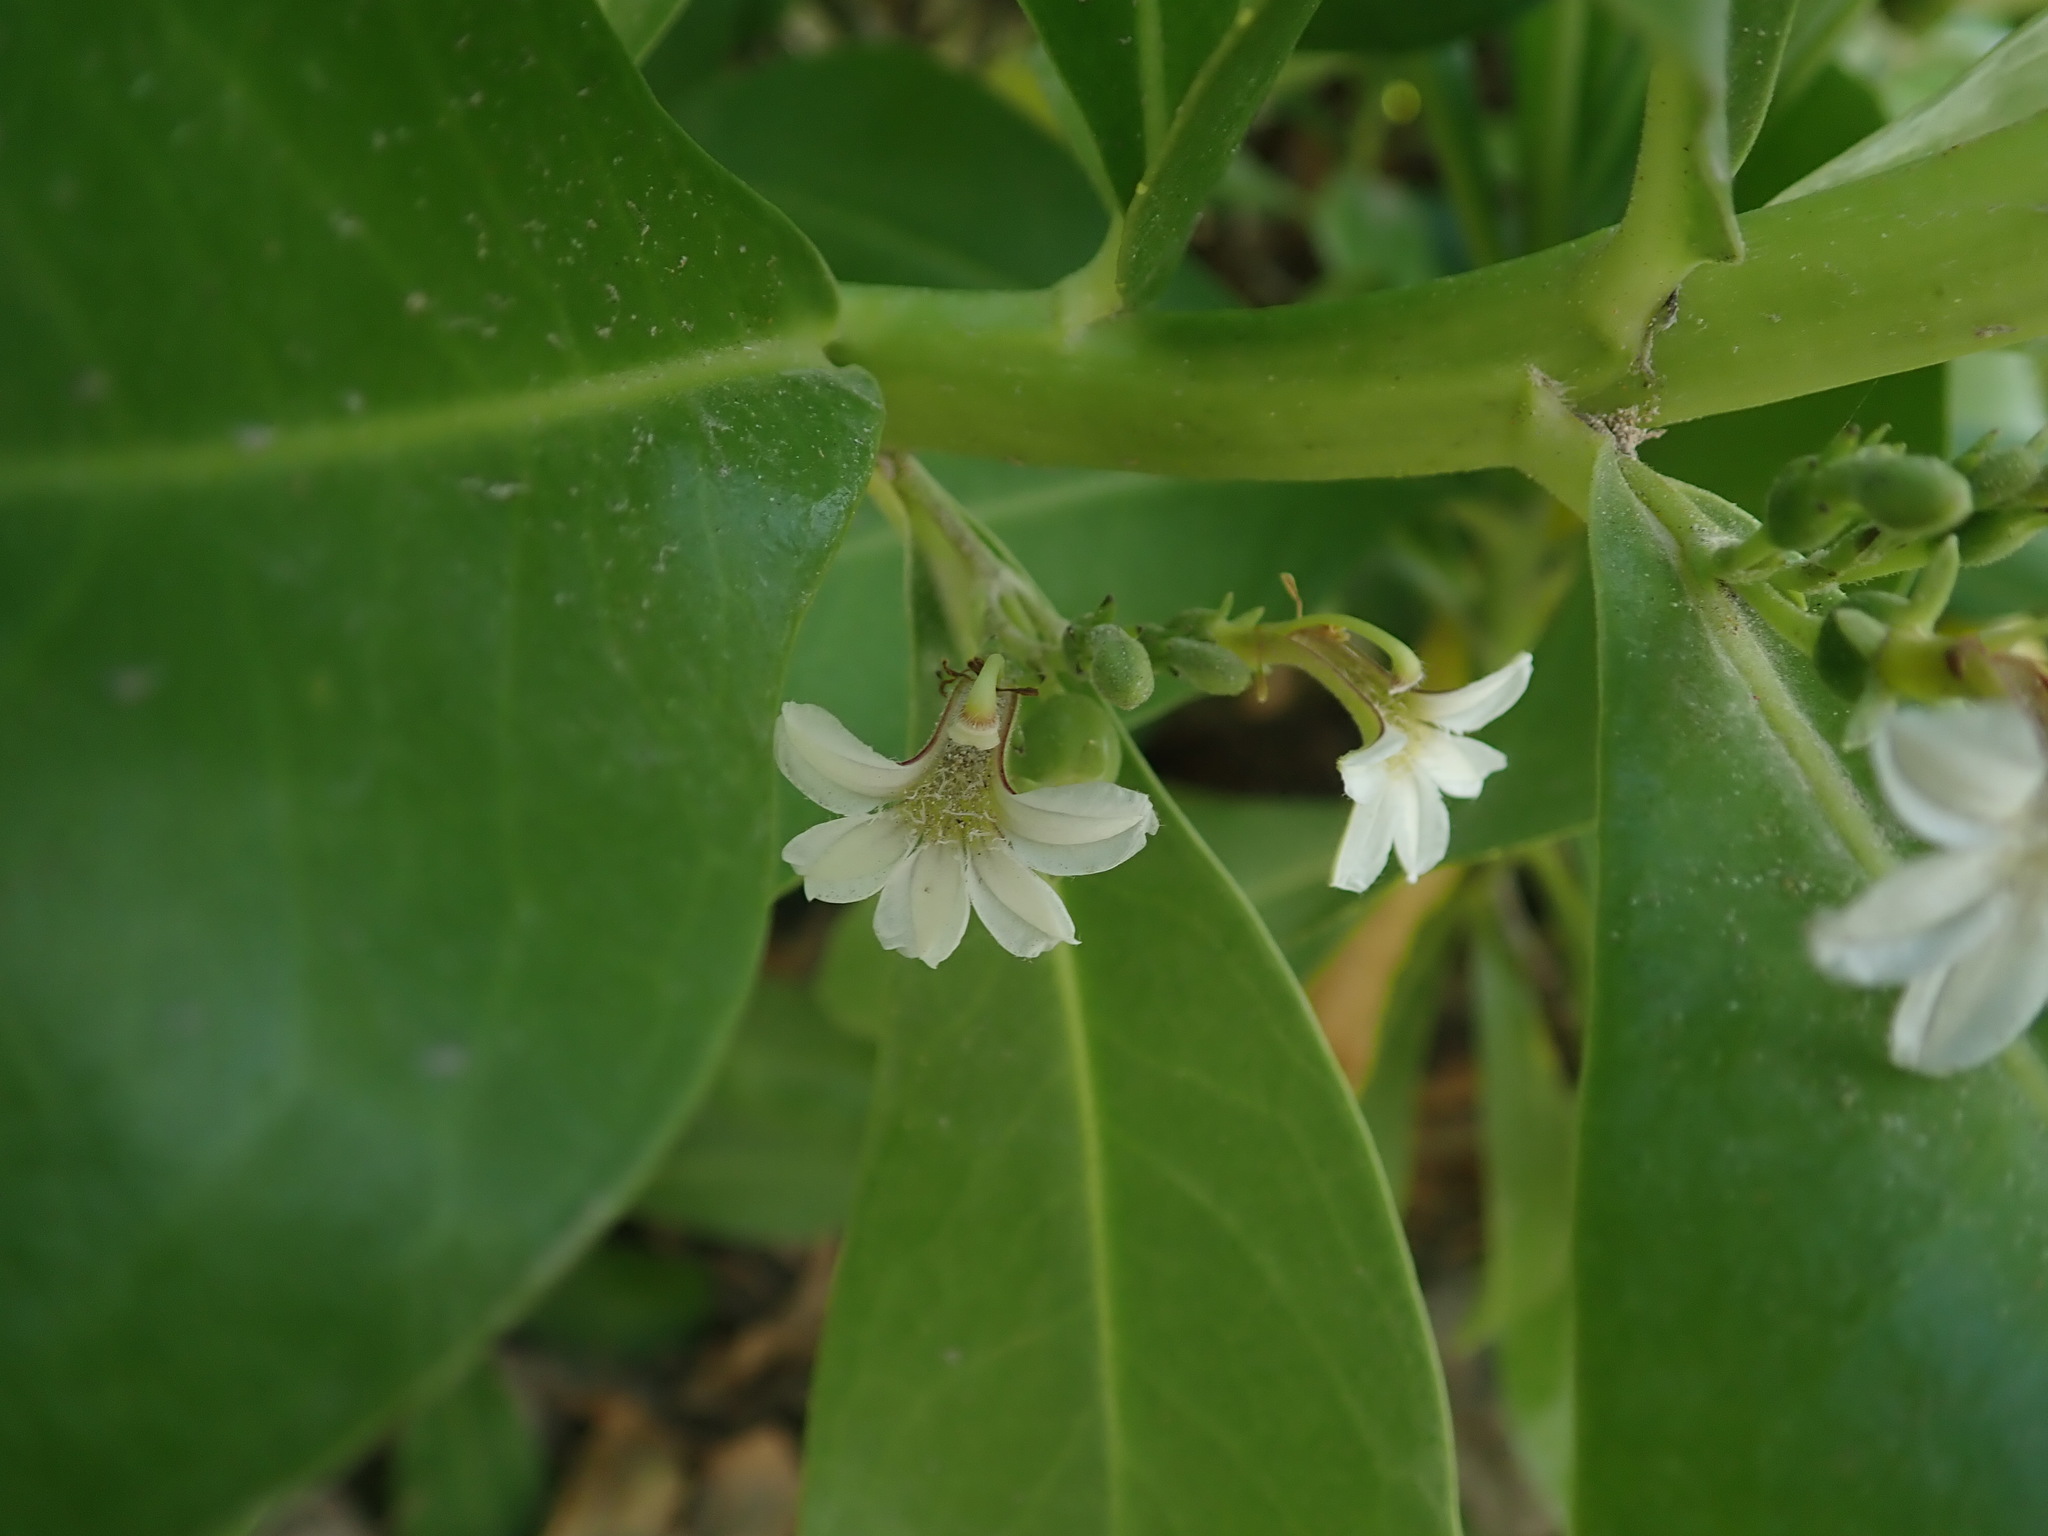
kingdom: Plantae
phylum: Tracheophyta
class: Magnoliopsida
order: Asterales
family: Goodeniaceae
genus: Scaevola
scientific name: Scaevola taccada
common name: Sea lettucetree
